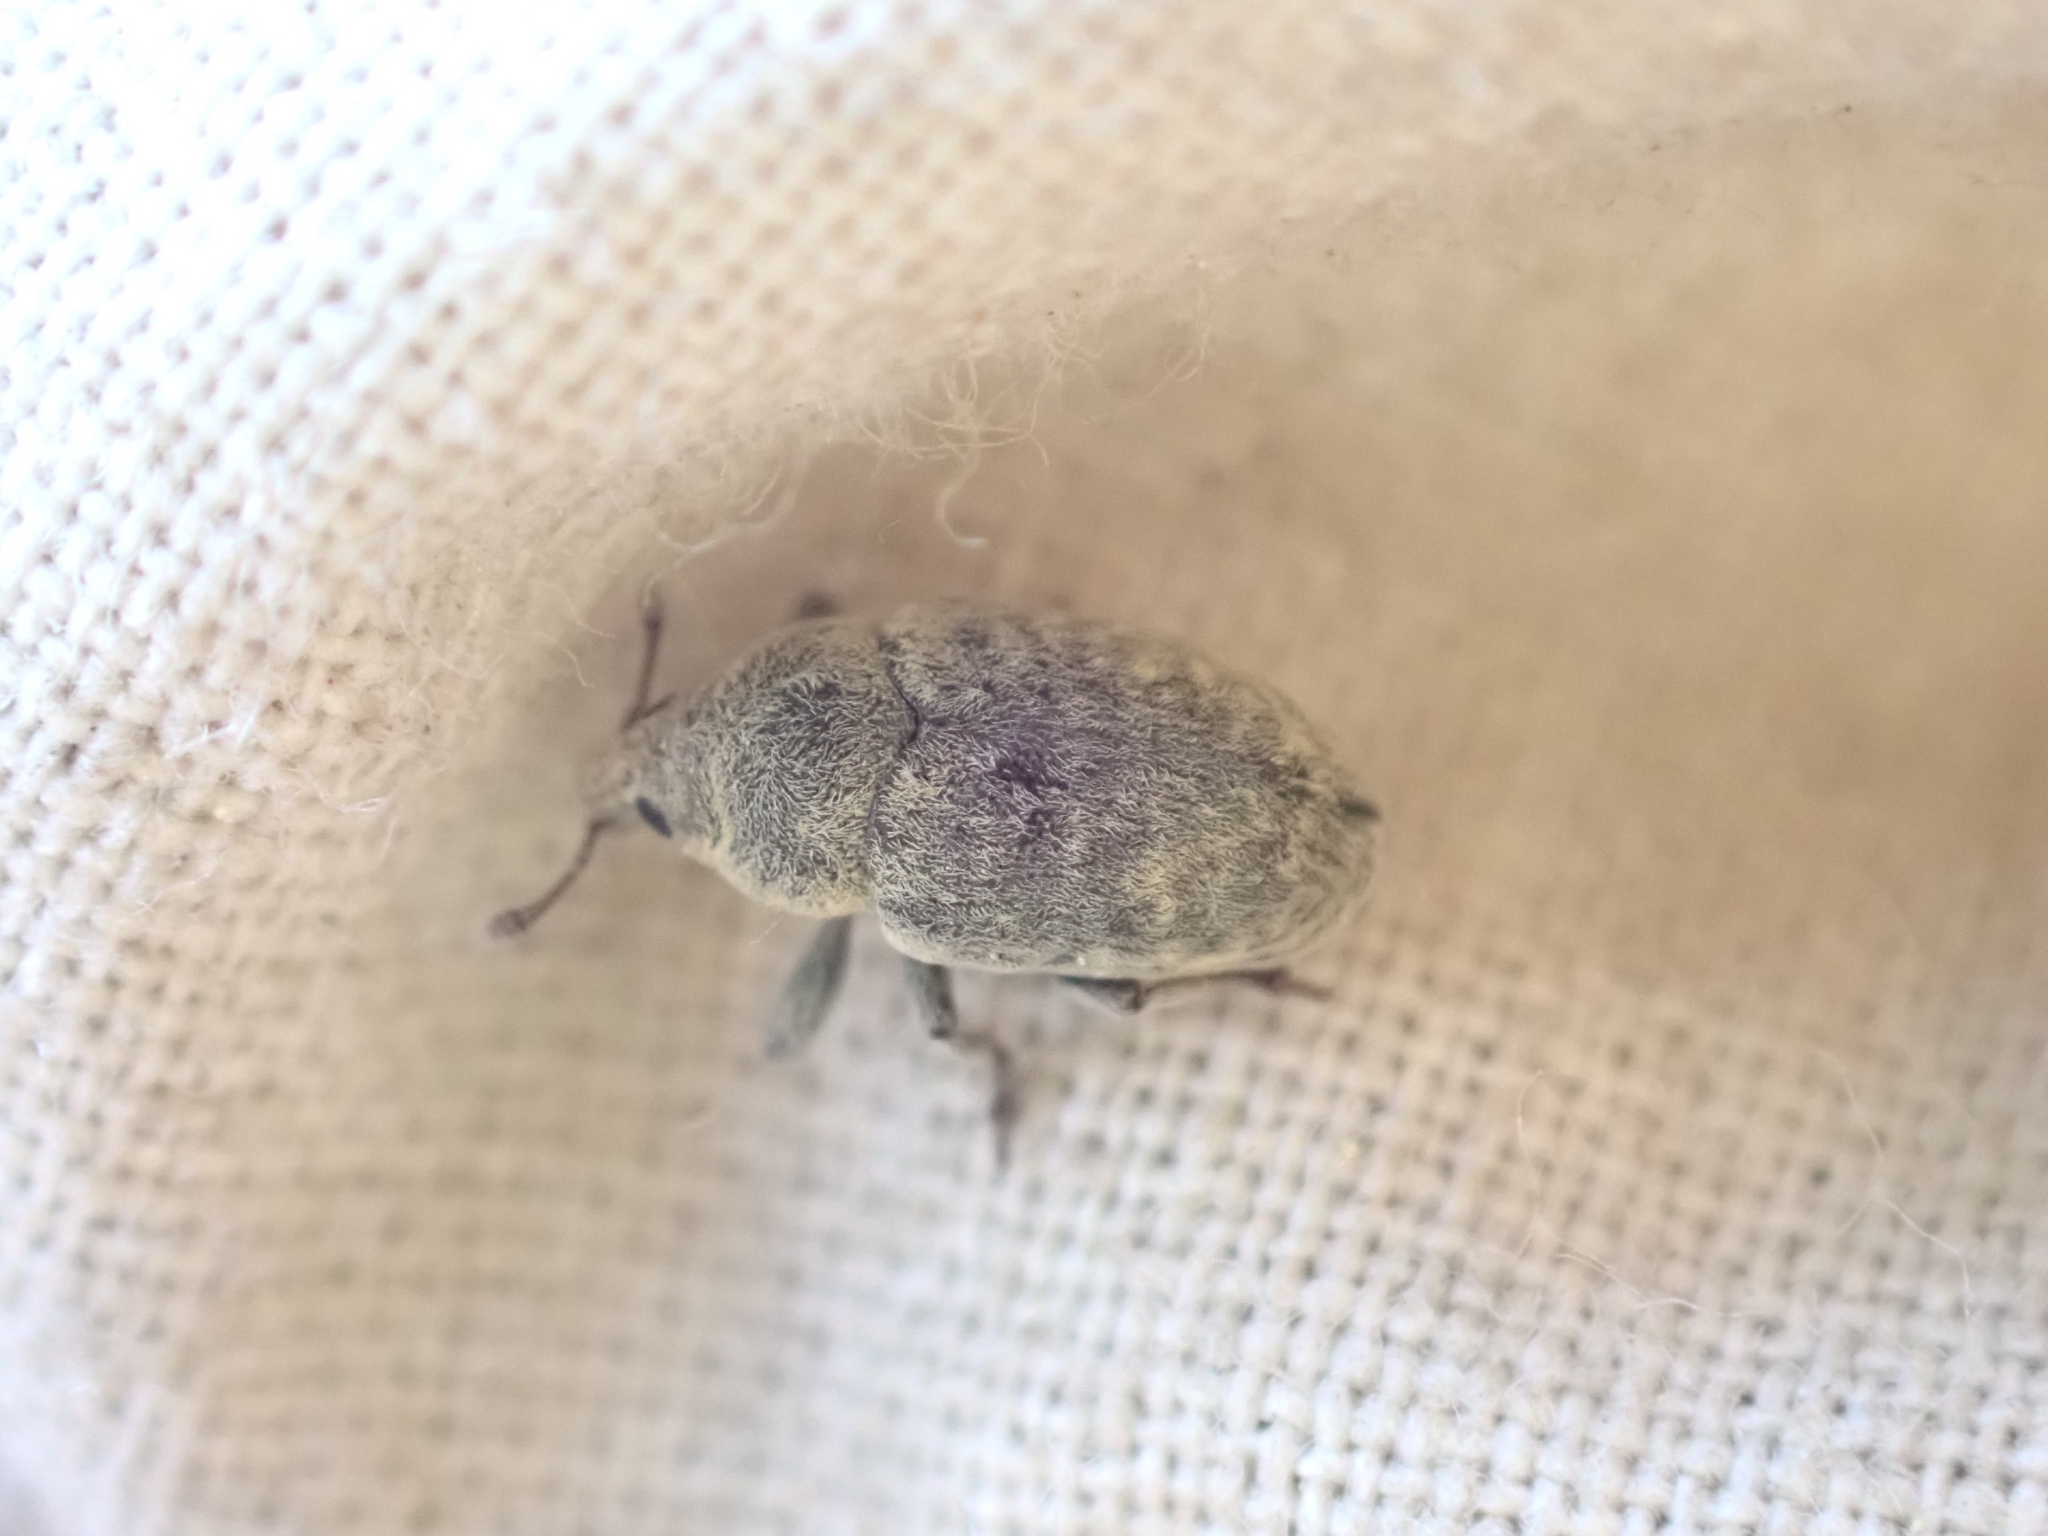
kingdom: Animalia
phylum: Arthropoda
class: Insecta
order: Coleoptera
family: Curculionidae
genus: Larinus
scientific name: Larinus minutus
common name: Weevil
